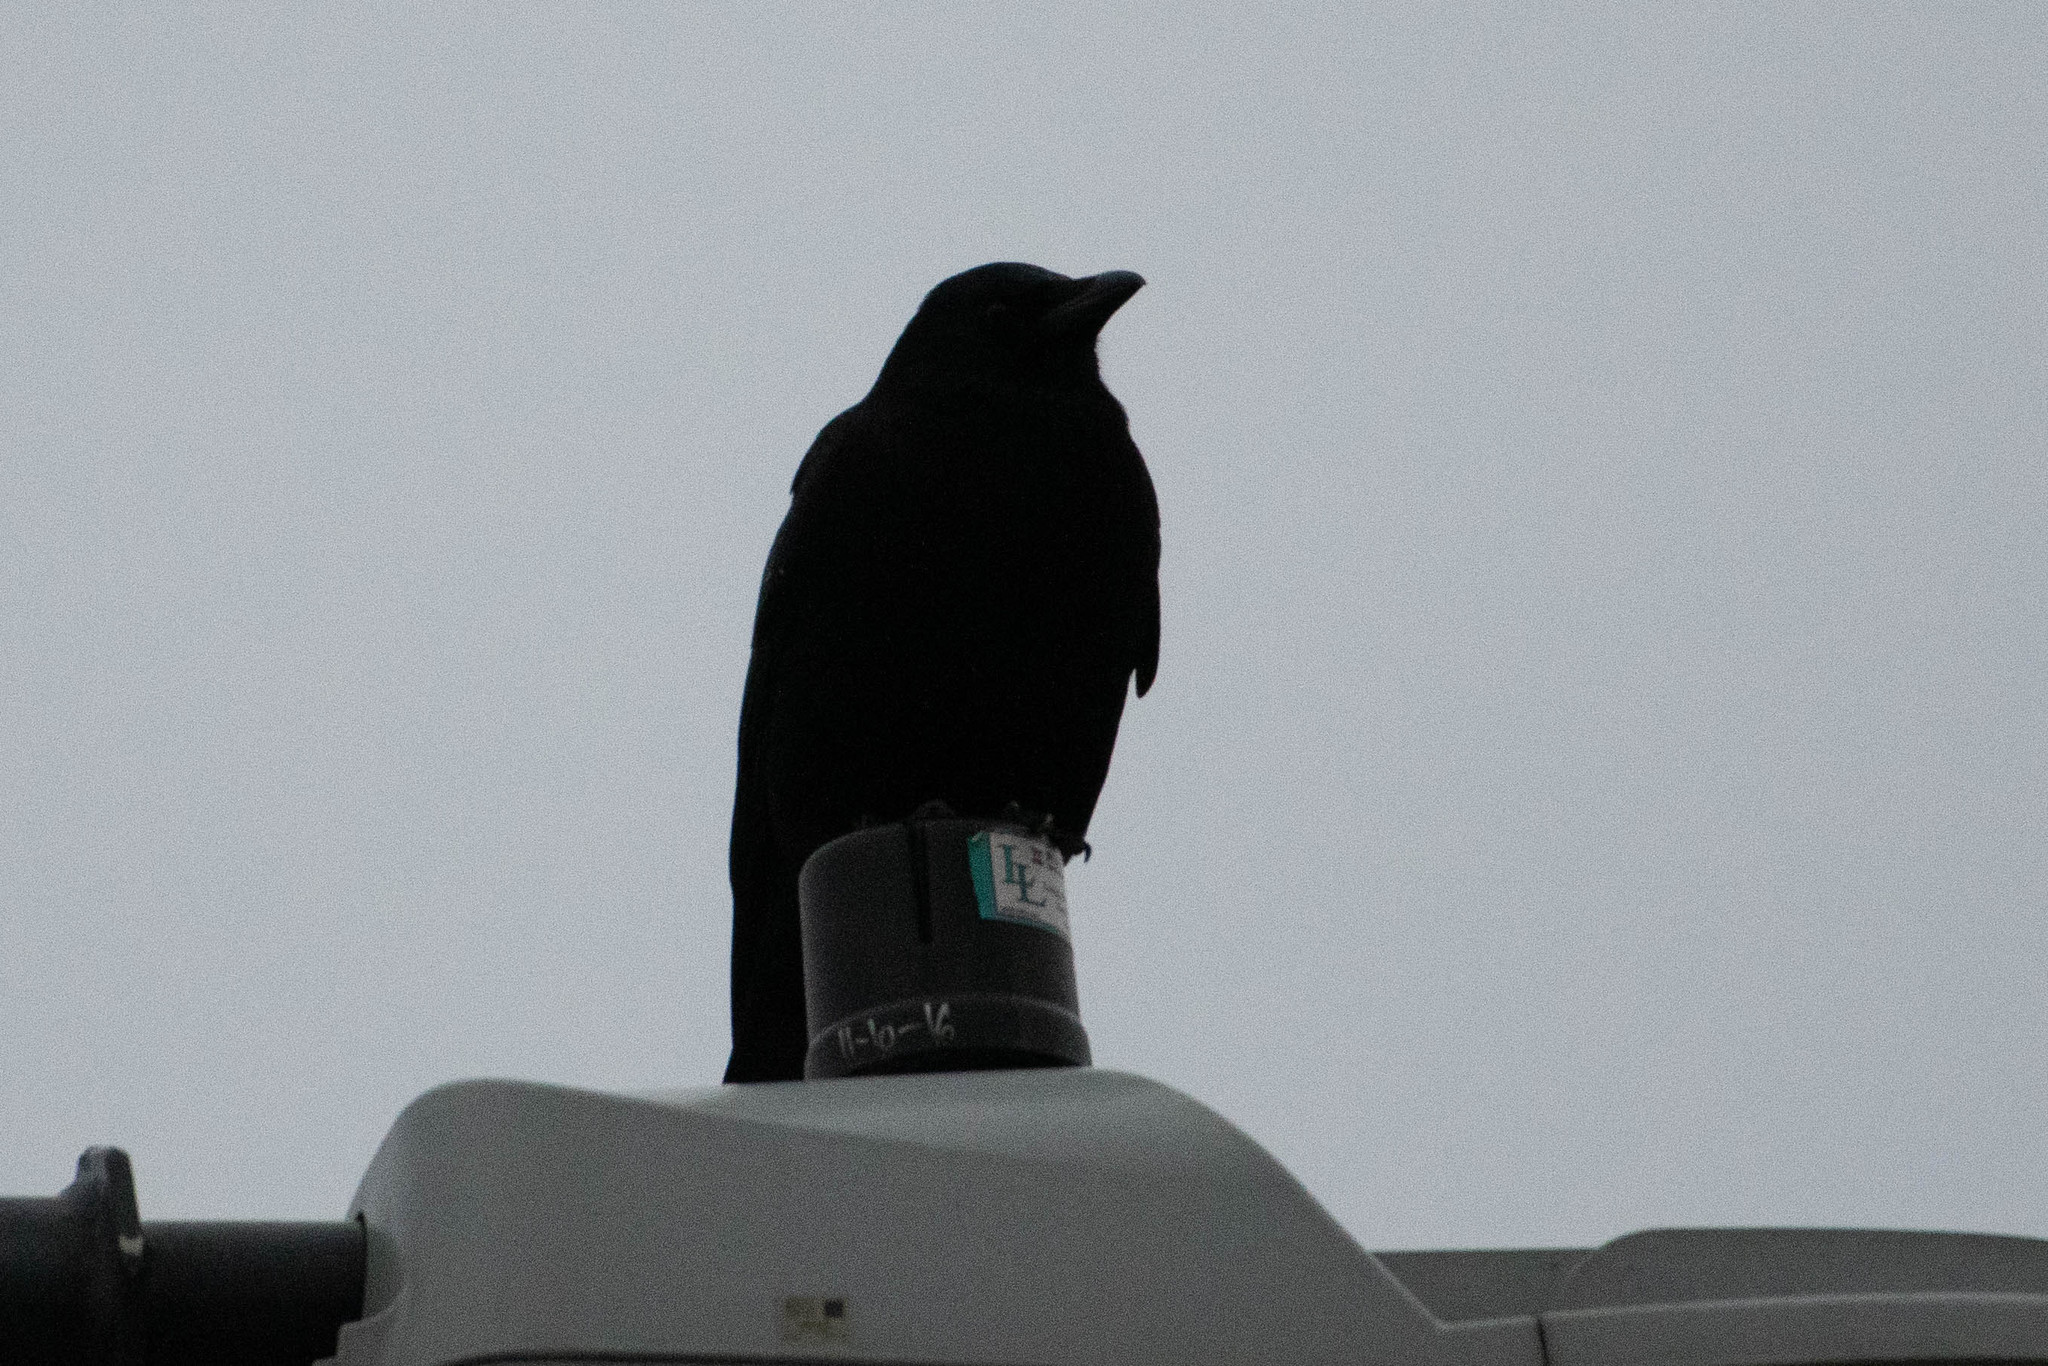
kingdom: Animalia
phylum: Chordata
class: Aves
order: Passeriformes
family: Corvidae
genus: Corvus
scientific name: Corvus brachyrhynchos
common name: American crow
